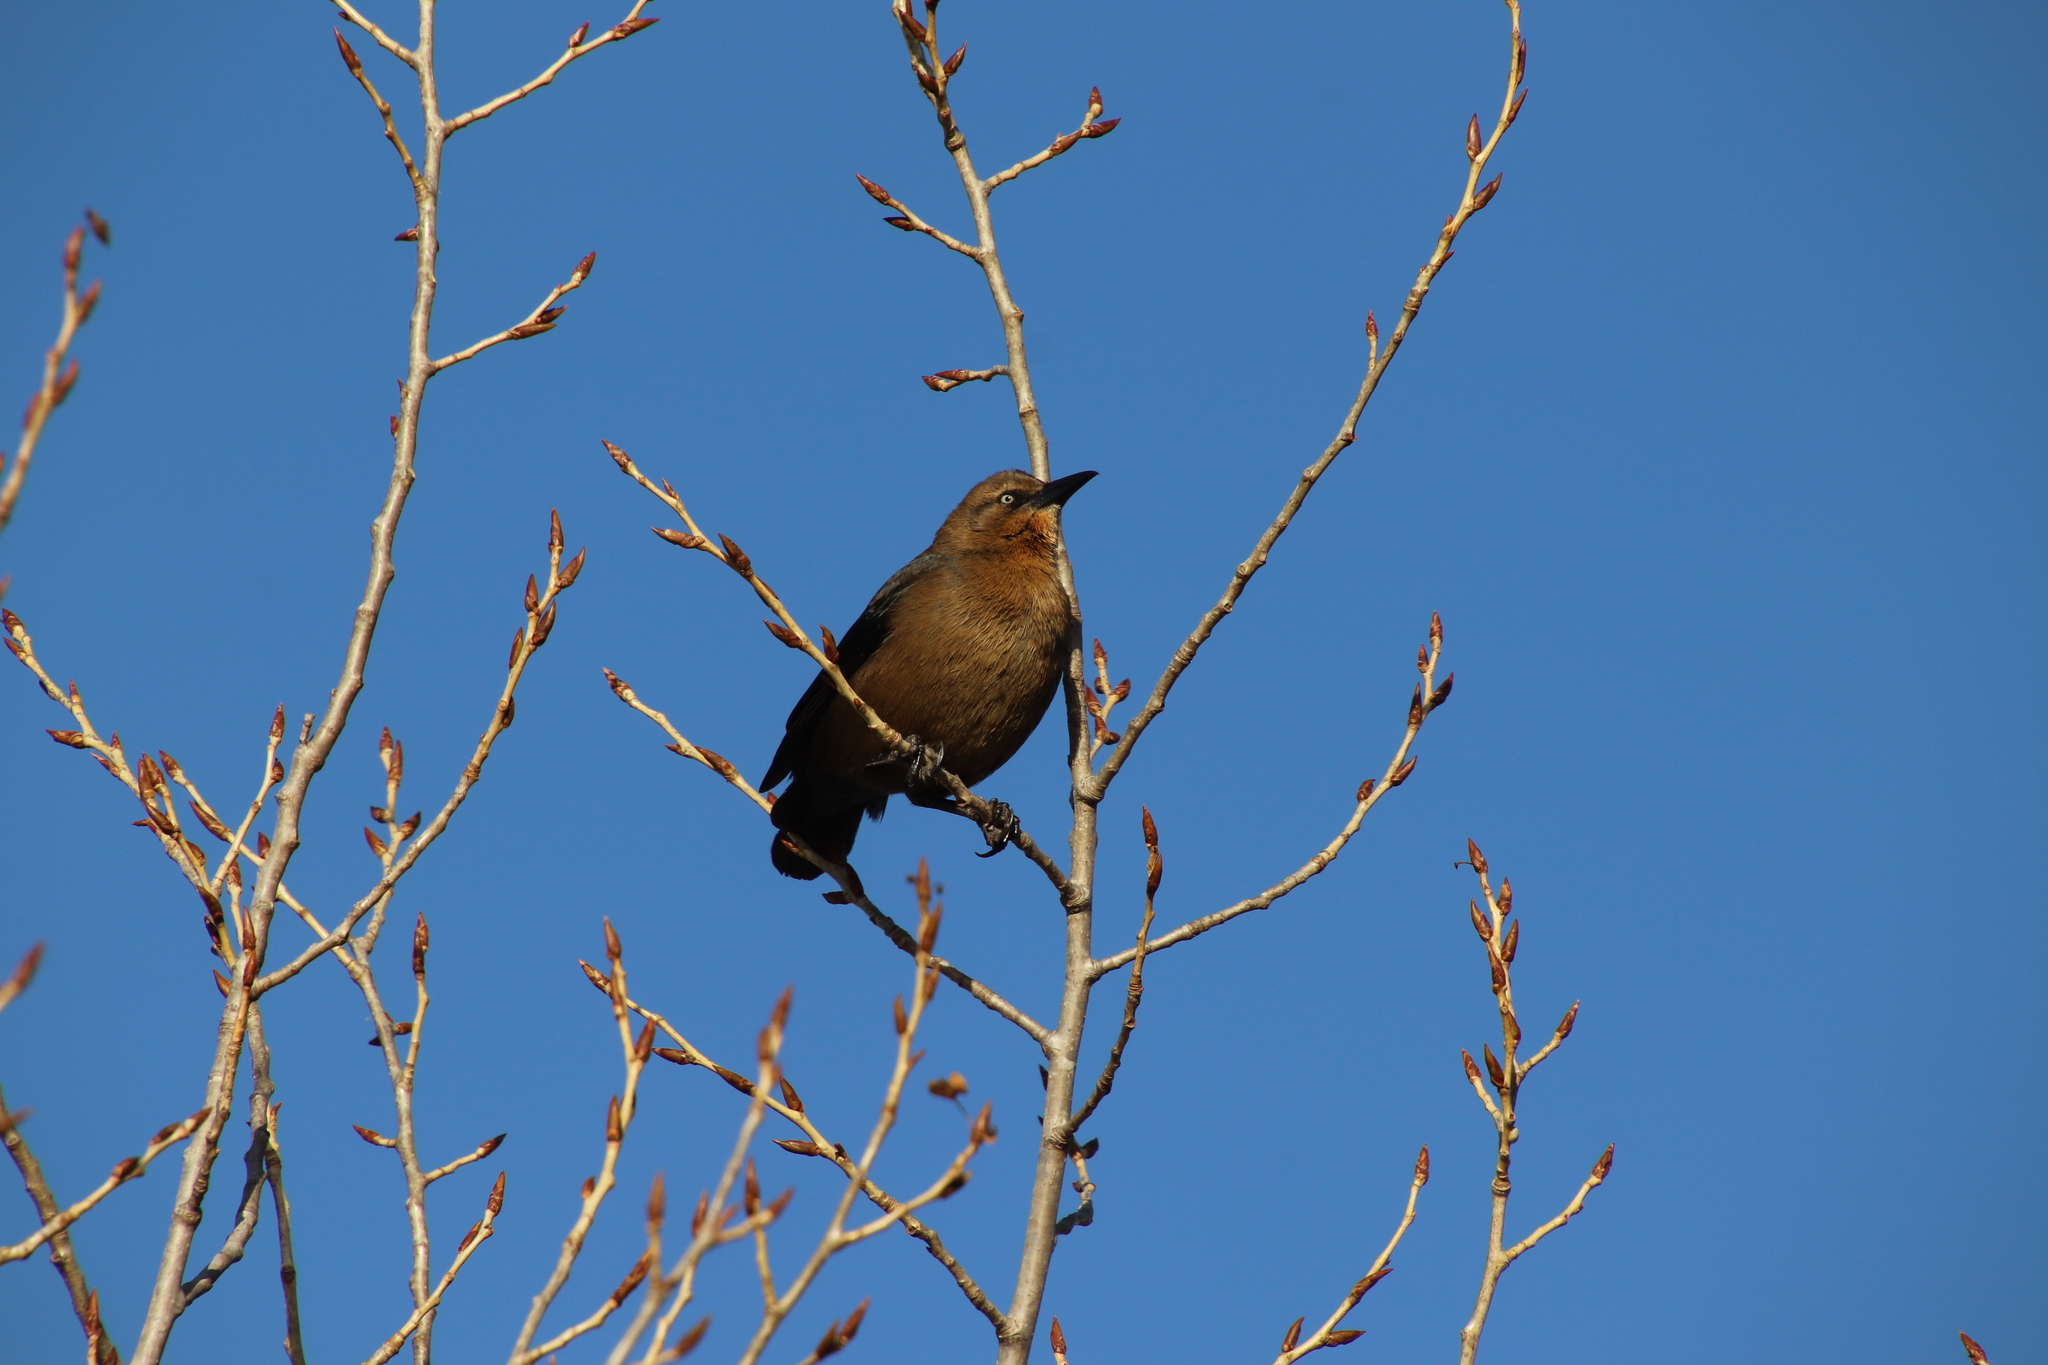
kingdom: Animalia
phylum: Chordata
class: Aves
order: Passeriformes
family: Icteridae
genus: Quiscalus
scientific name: Quiscalus mexicanus
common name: Great-tailed grackle
